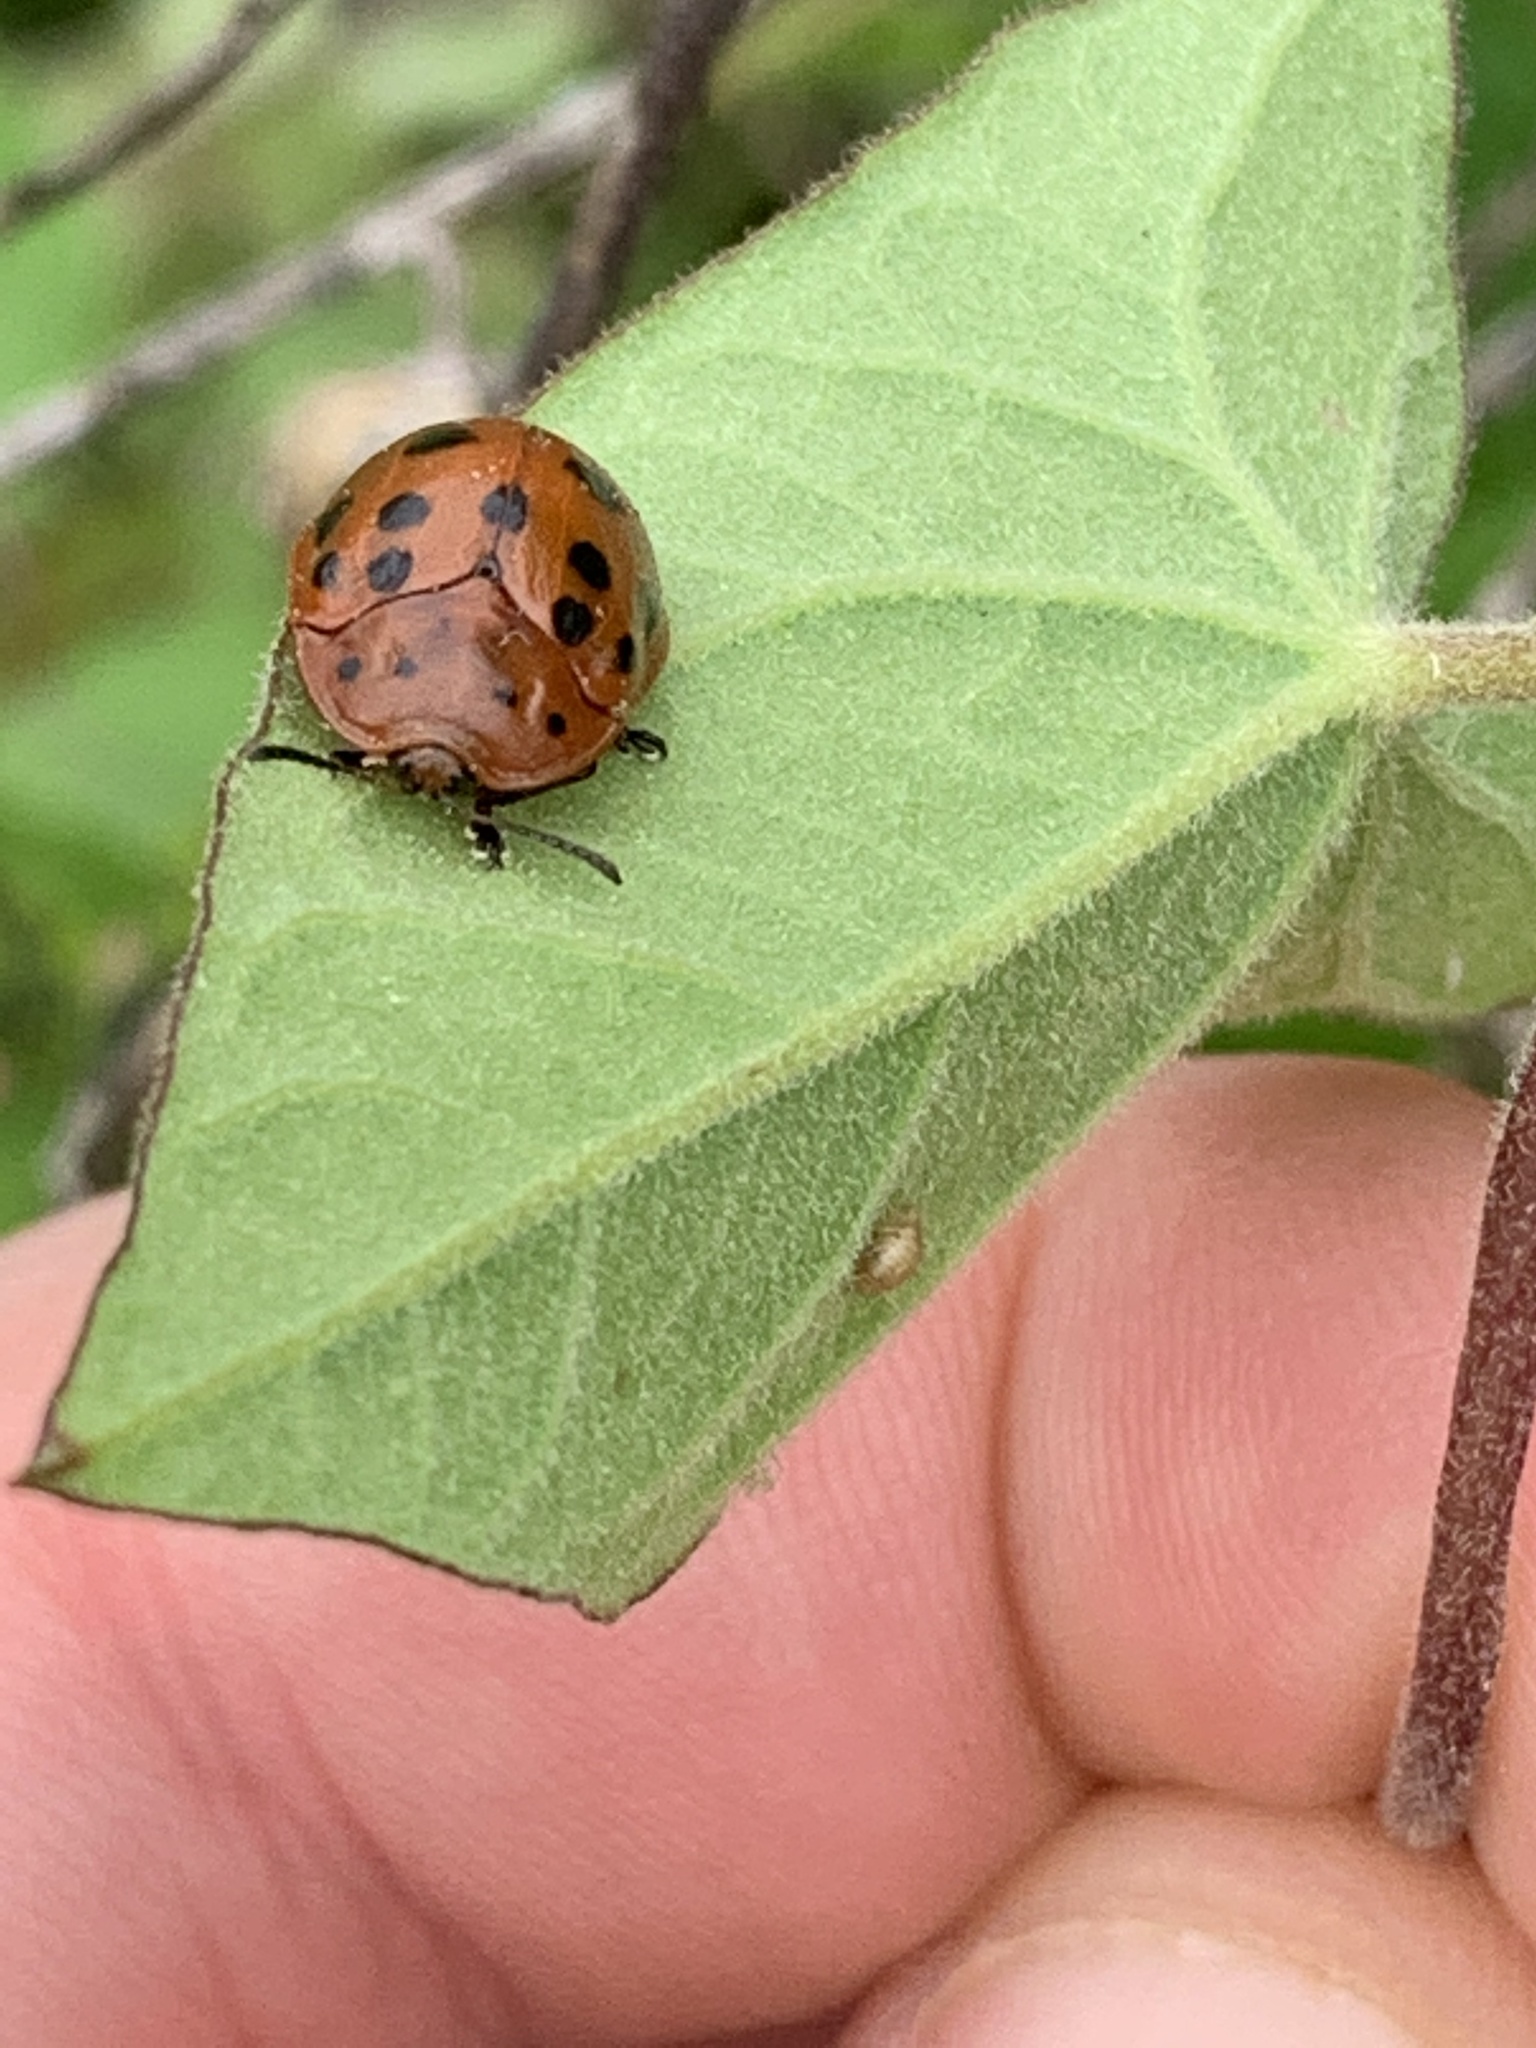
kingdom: Animalia
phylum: Arthropoda
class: Insecta
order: Coleoptera
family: Chrysomelidae
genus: Chelymorpha
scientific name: Chelymorpha cassidea
